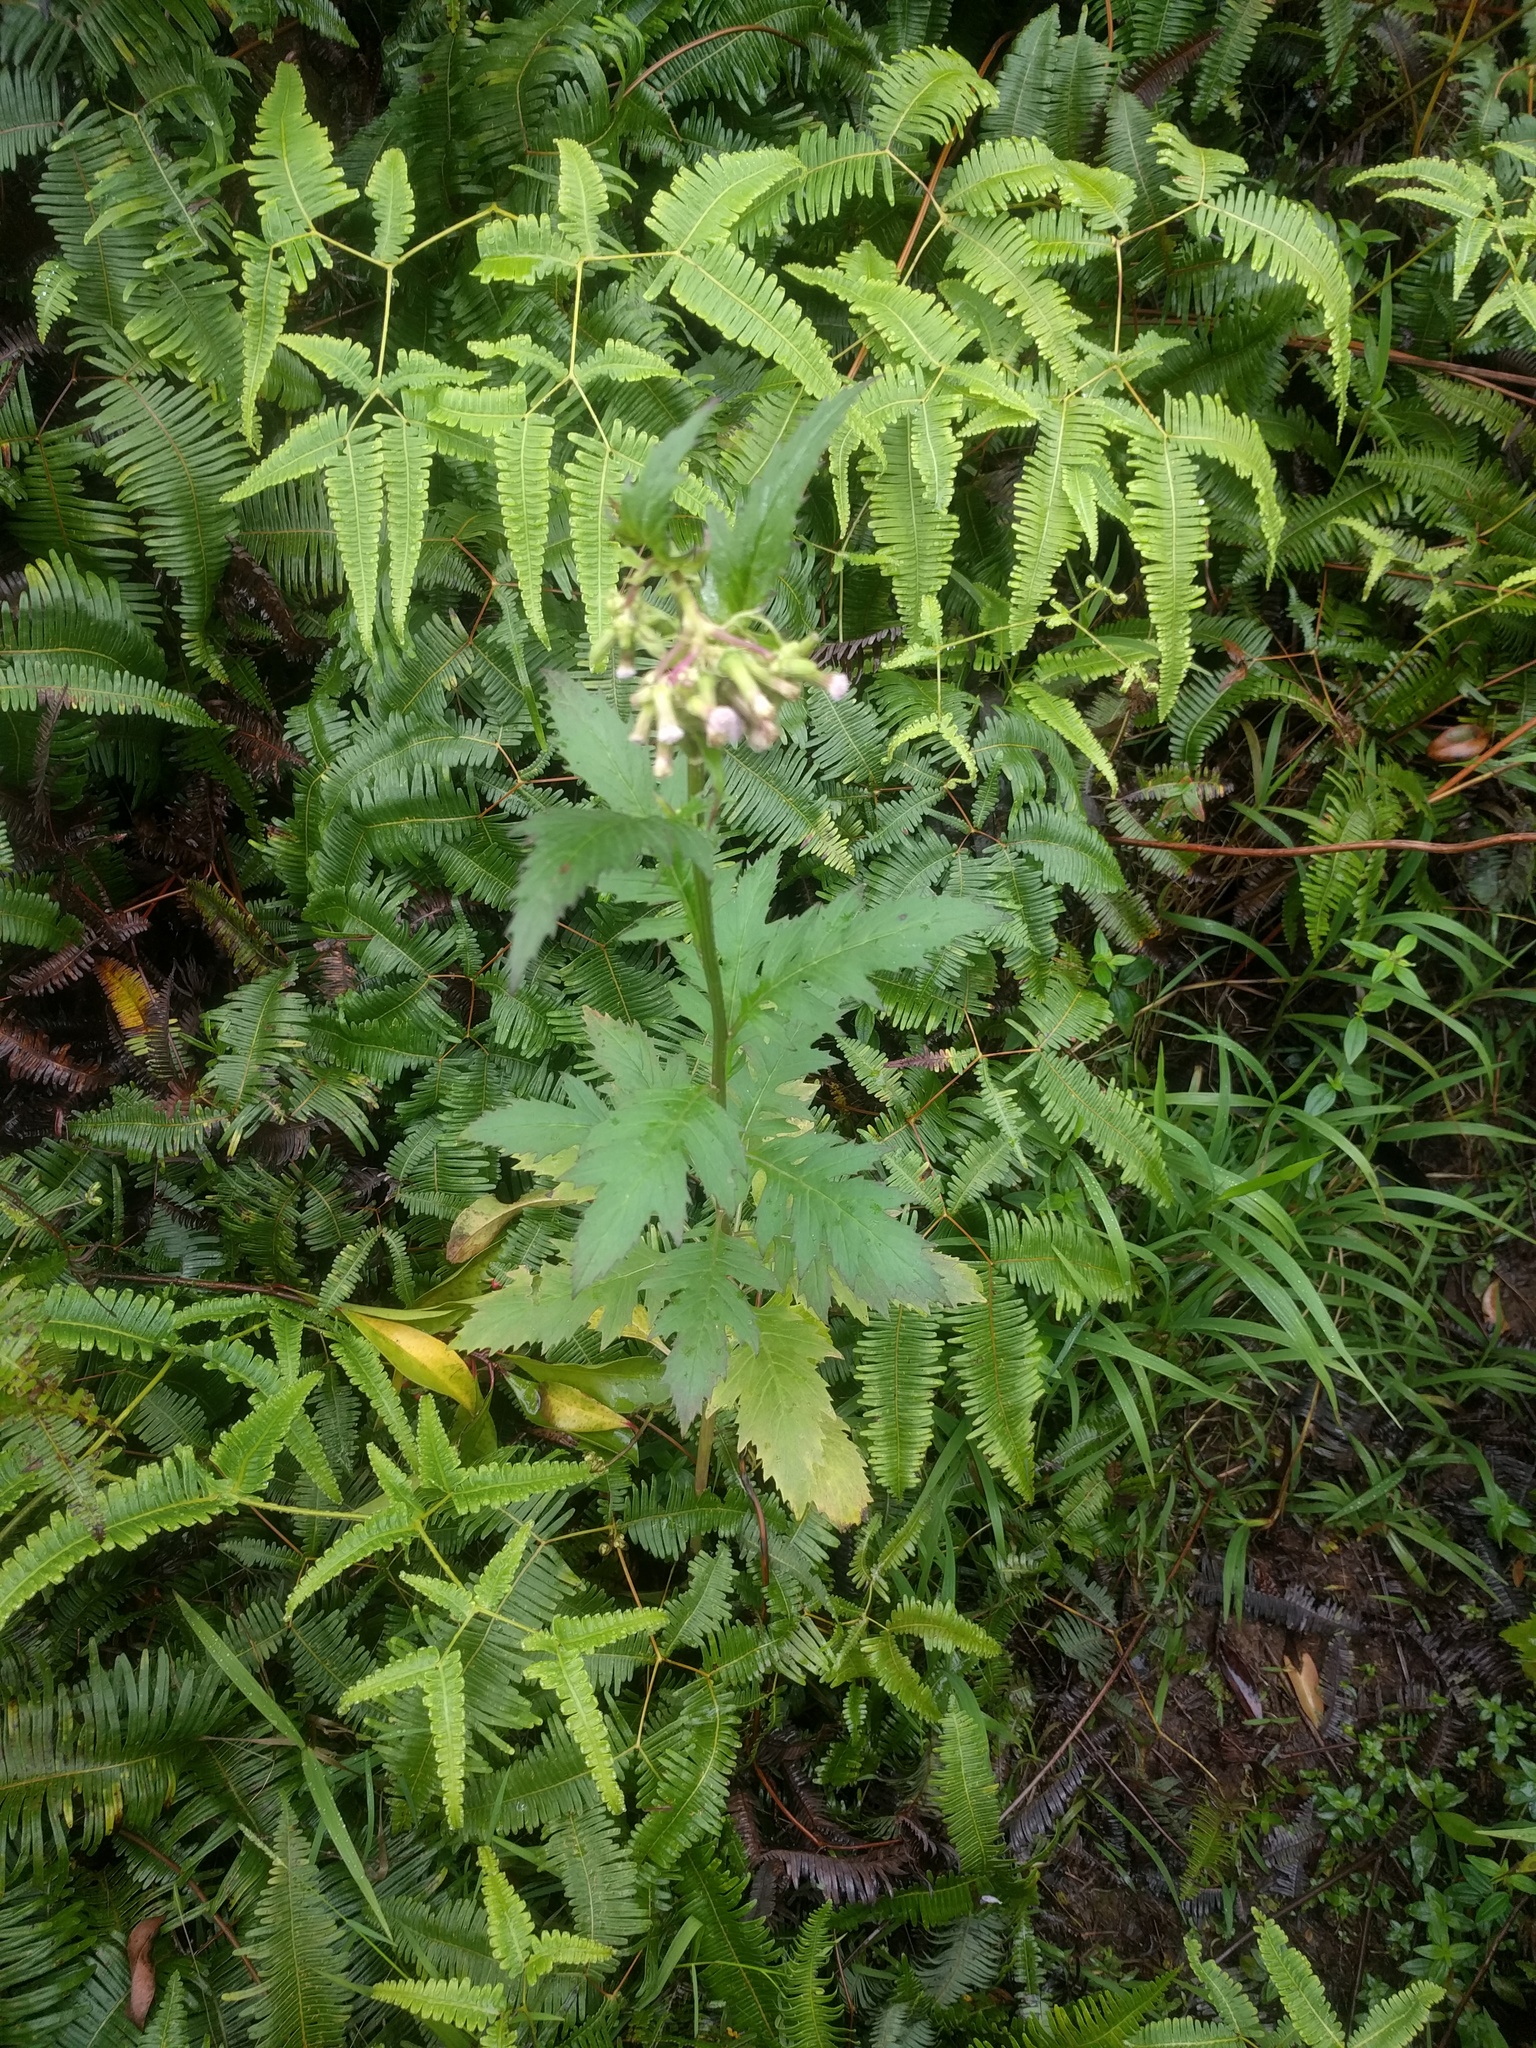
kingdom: Plantae
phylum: Tracheophyta
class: Magnoliopsida
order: Asterales
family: Asteraceae
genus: Erechtites
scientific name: Erechtites valerianifolius
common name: Tropical burnweed
